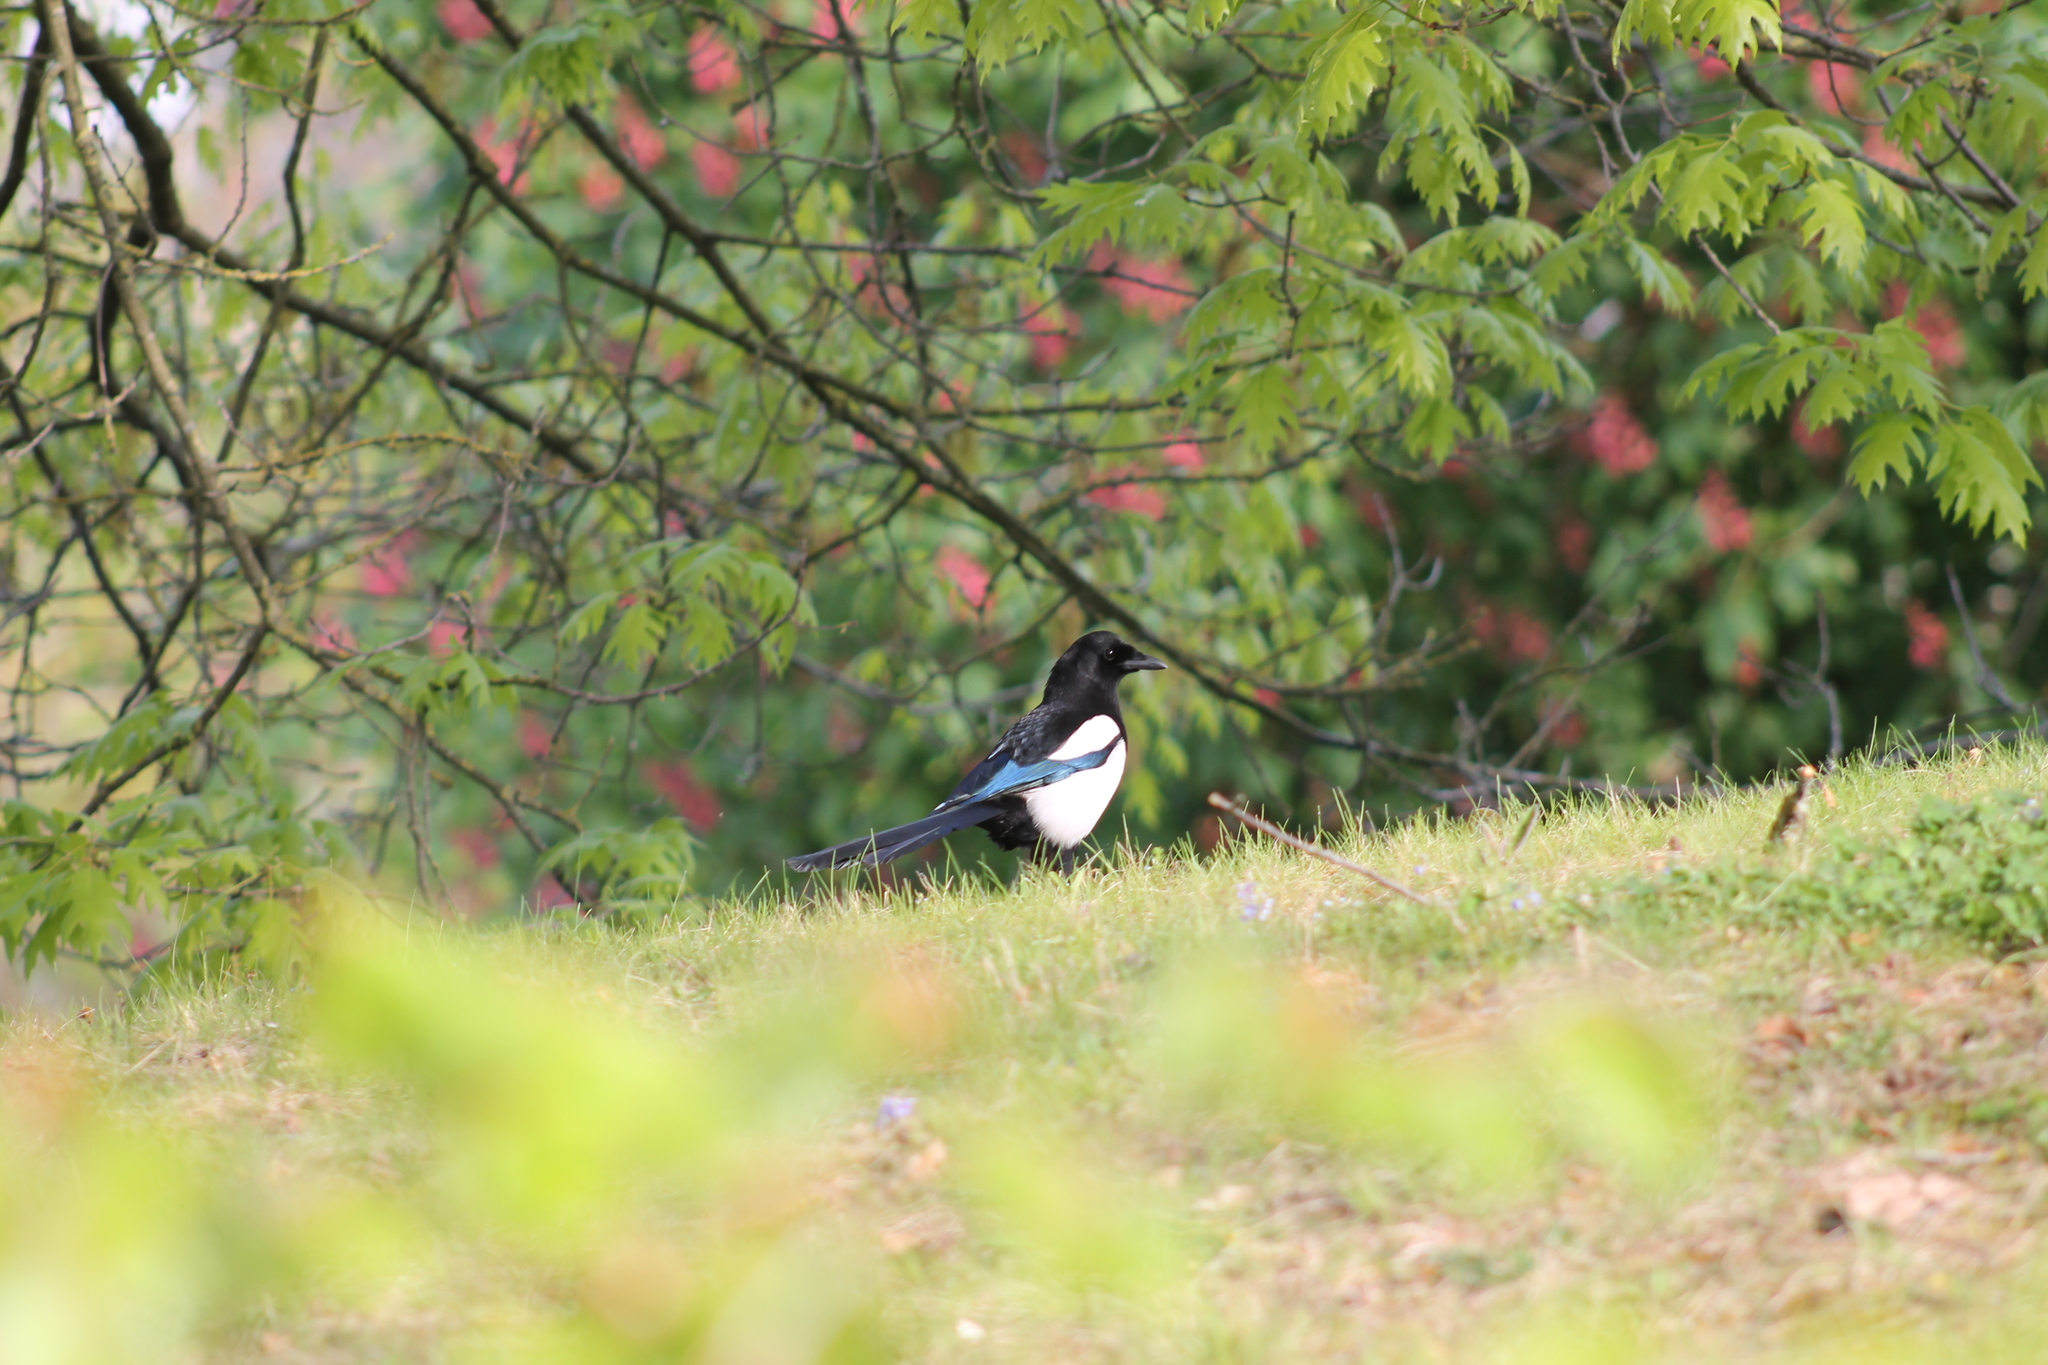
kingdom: Animalia
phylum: Chordata
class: Aves
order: Passeriformes
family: Corvidae
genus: Pica
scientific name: Pica pica
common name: Eurasian magpie
